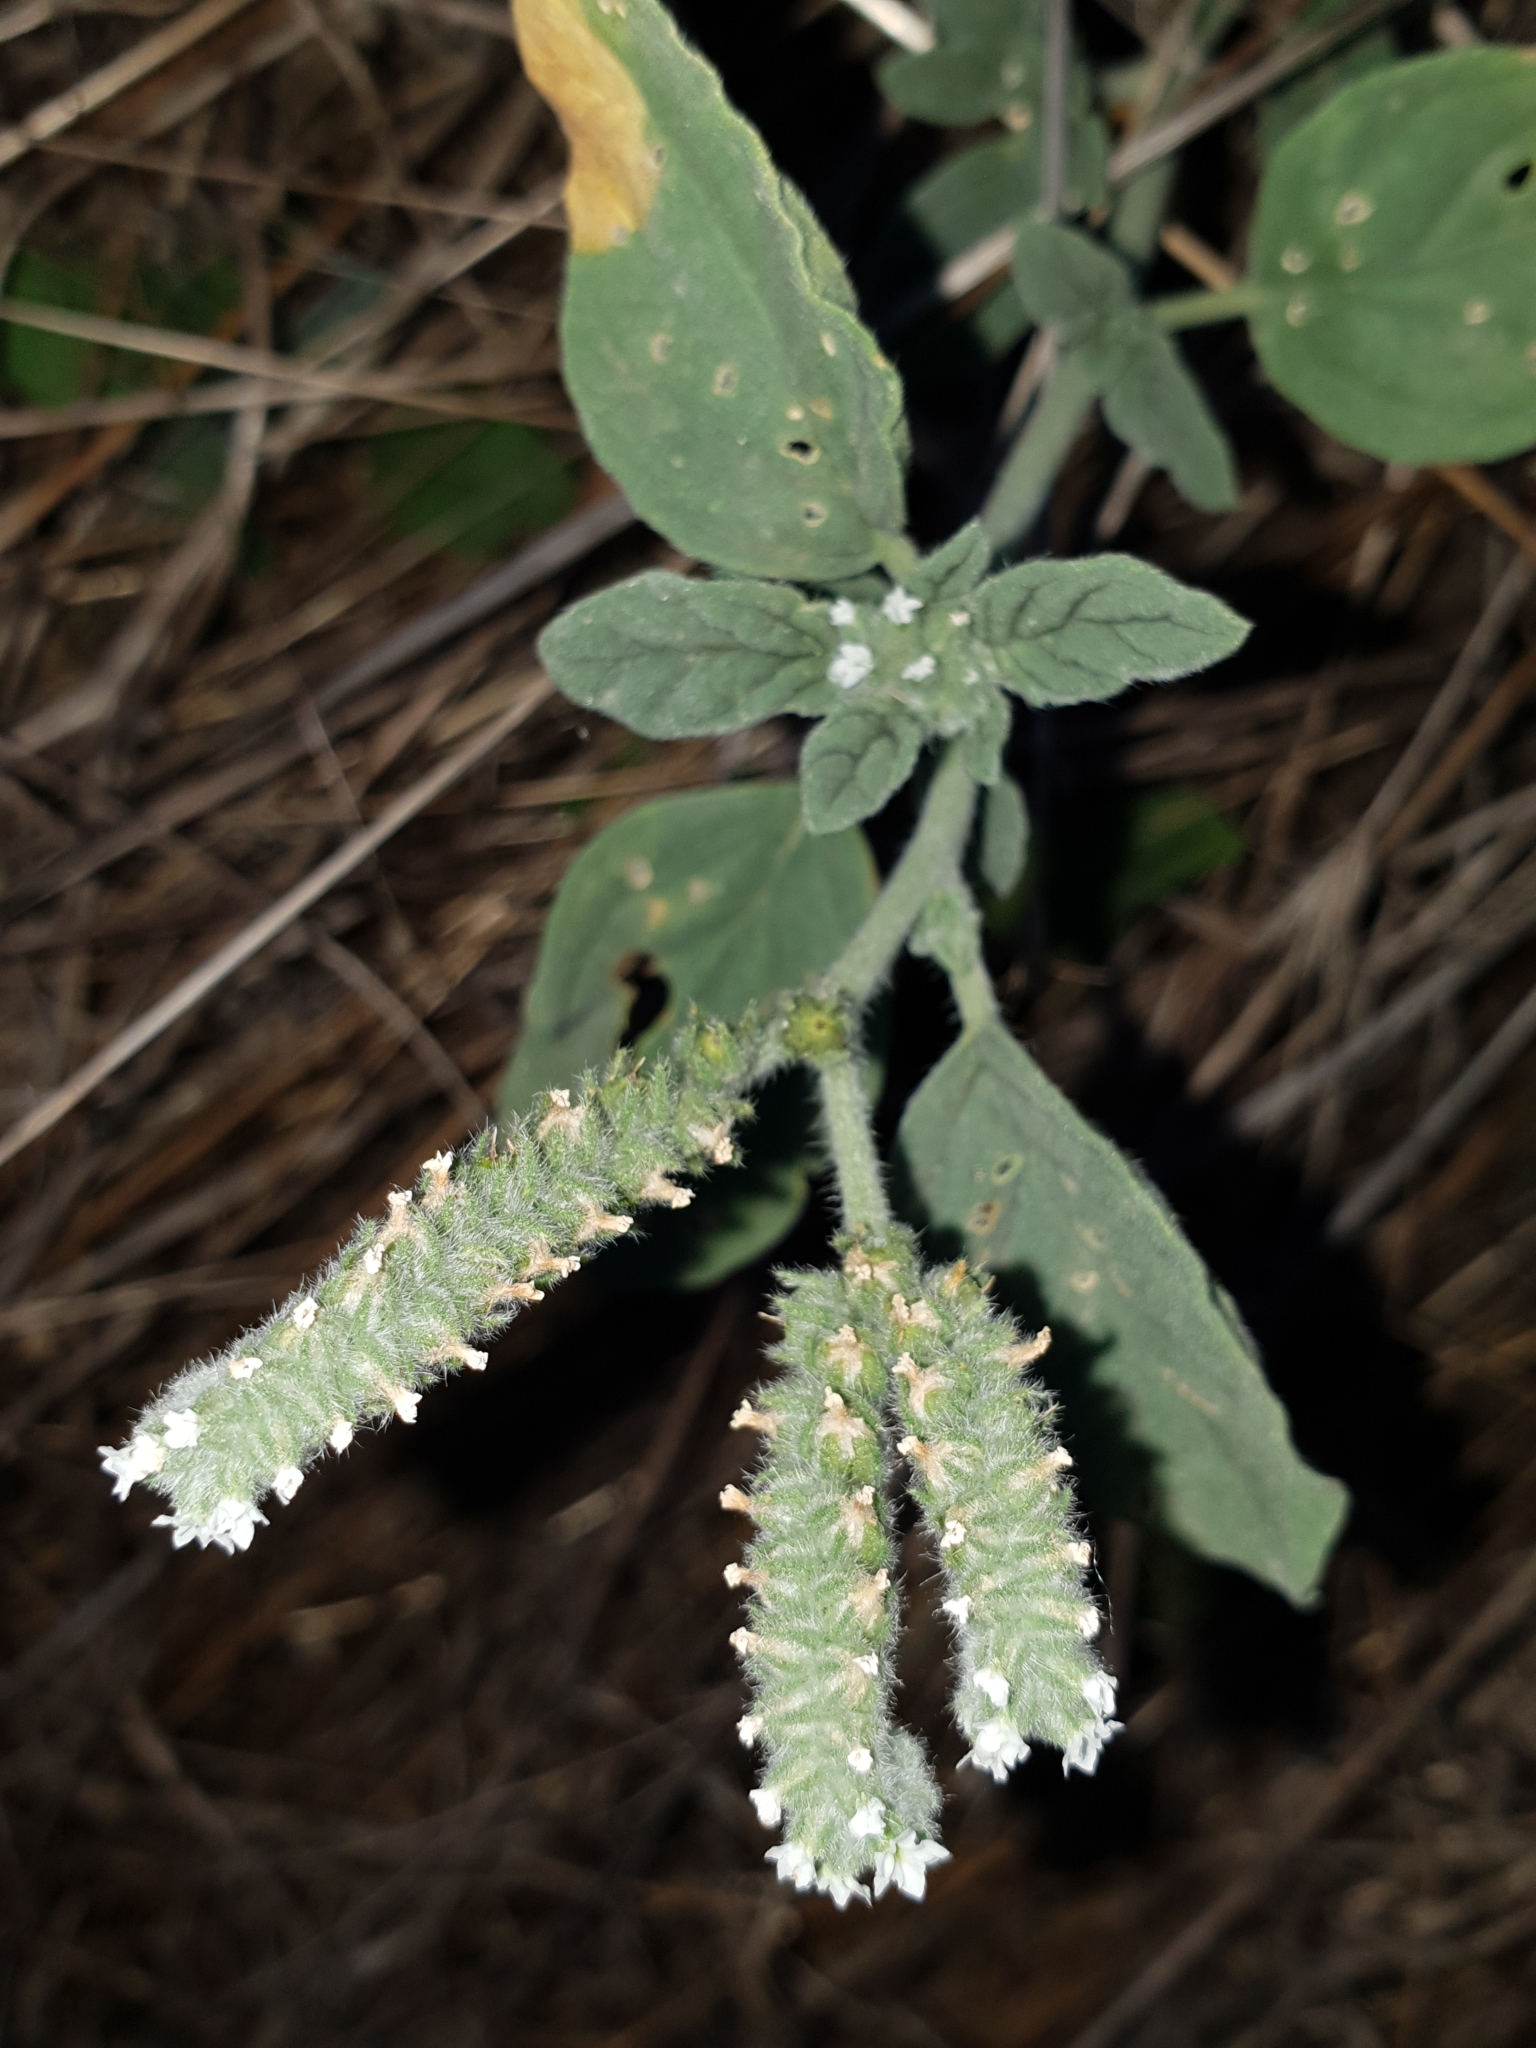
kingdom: Plantae
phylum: Tracheophyta
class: Magnoliopsida
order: Boraginales
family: Heliotropiaceae
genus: Heliotropium
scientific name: Heliotropium europaeum
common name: European heliotrope
